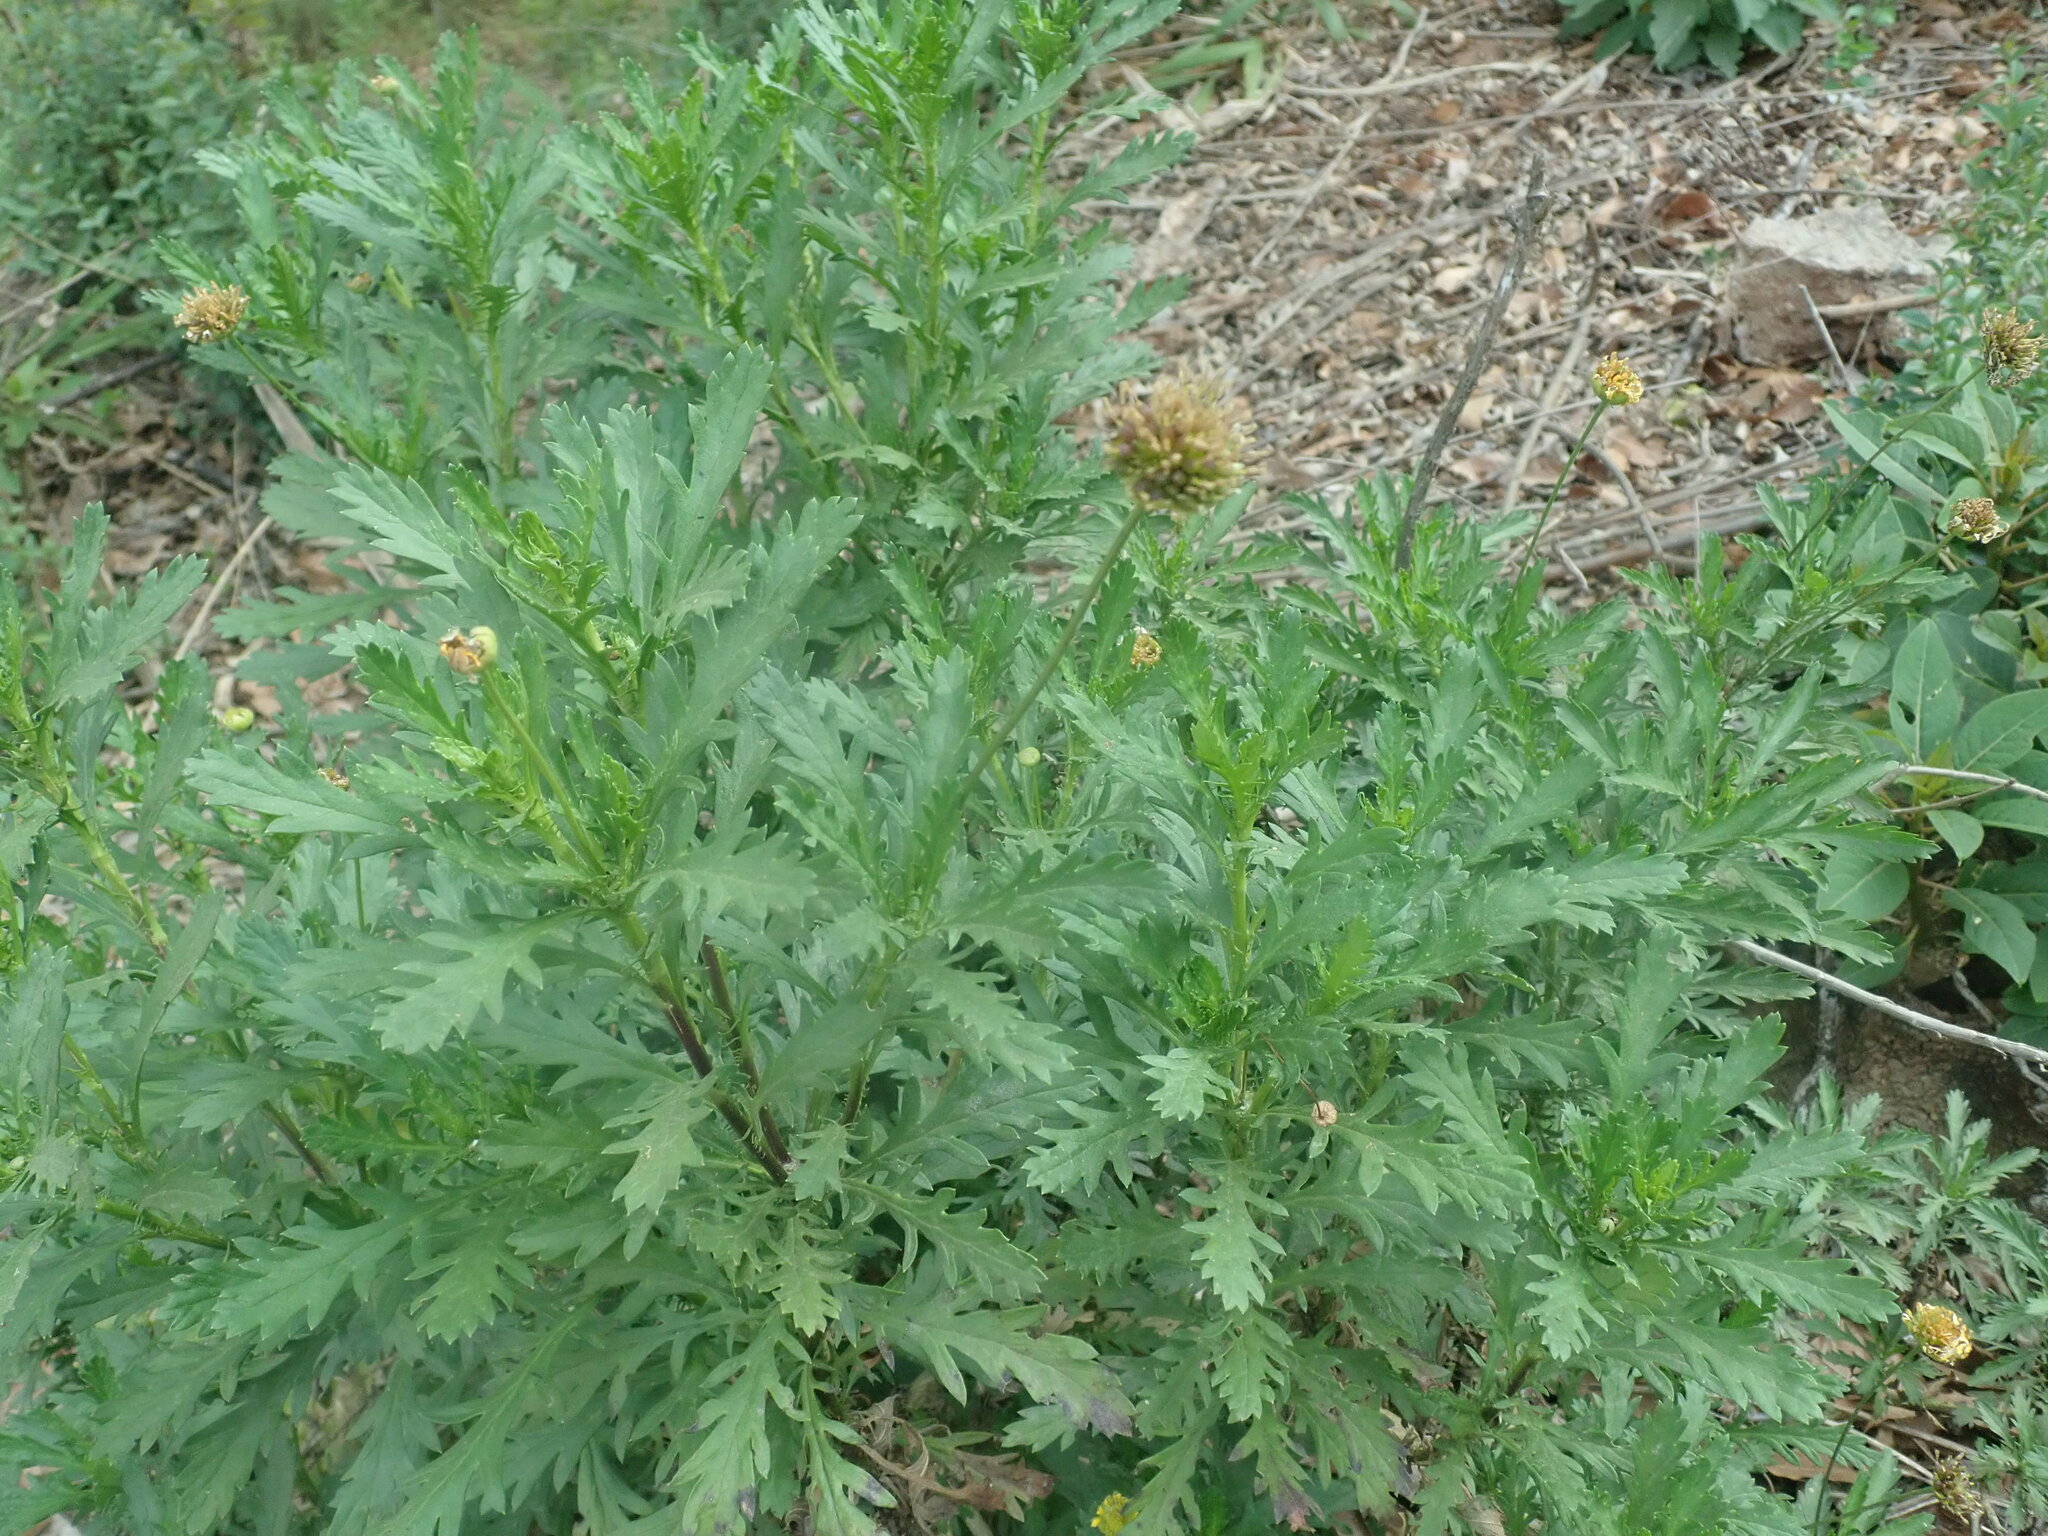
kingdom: Plantae
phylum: Tracheophyta
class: Magnoliopsida
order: Asterales
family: Asteraceae
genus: Euryops
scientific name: Euryops chrysanthemoides
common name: Bull's eye
